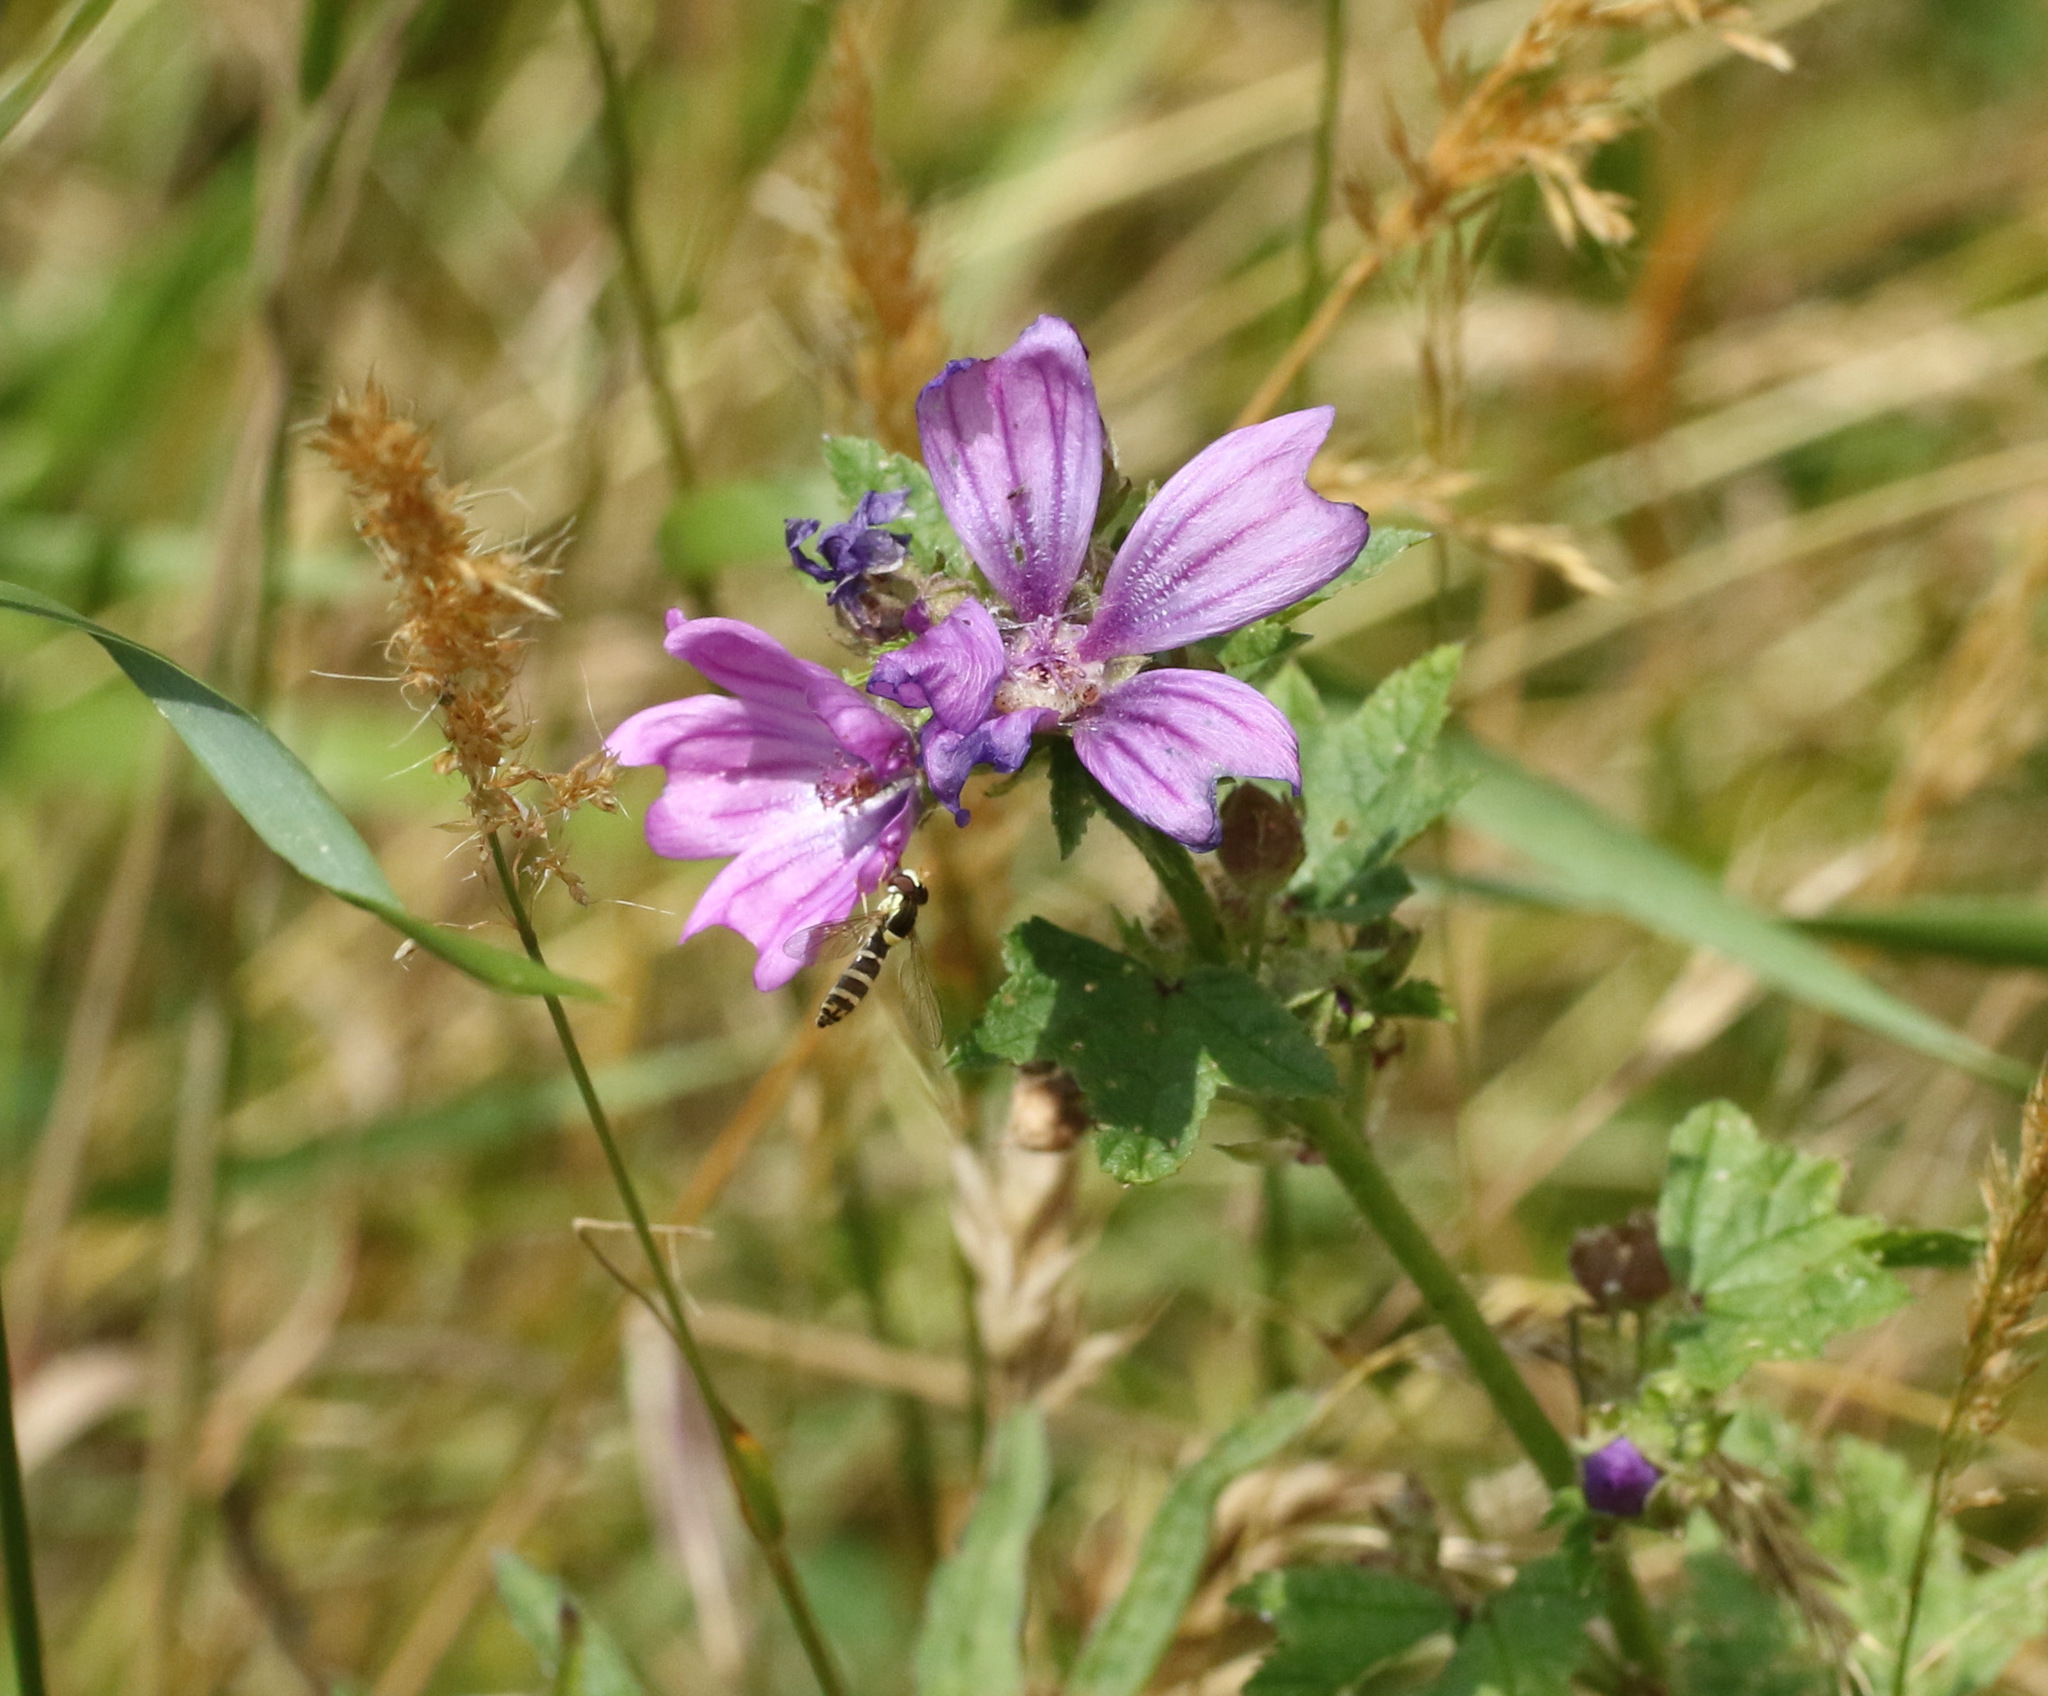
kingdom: Plantae
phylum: Tracheophyta
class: Magnoliopsida
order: Malvales
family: Malvaceae
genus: Malva
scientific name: Malva sylvestris
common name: Common mallow
